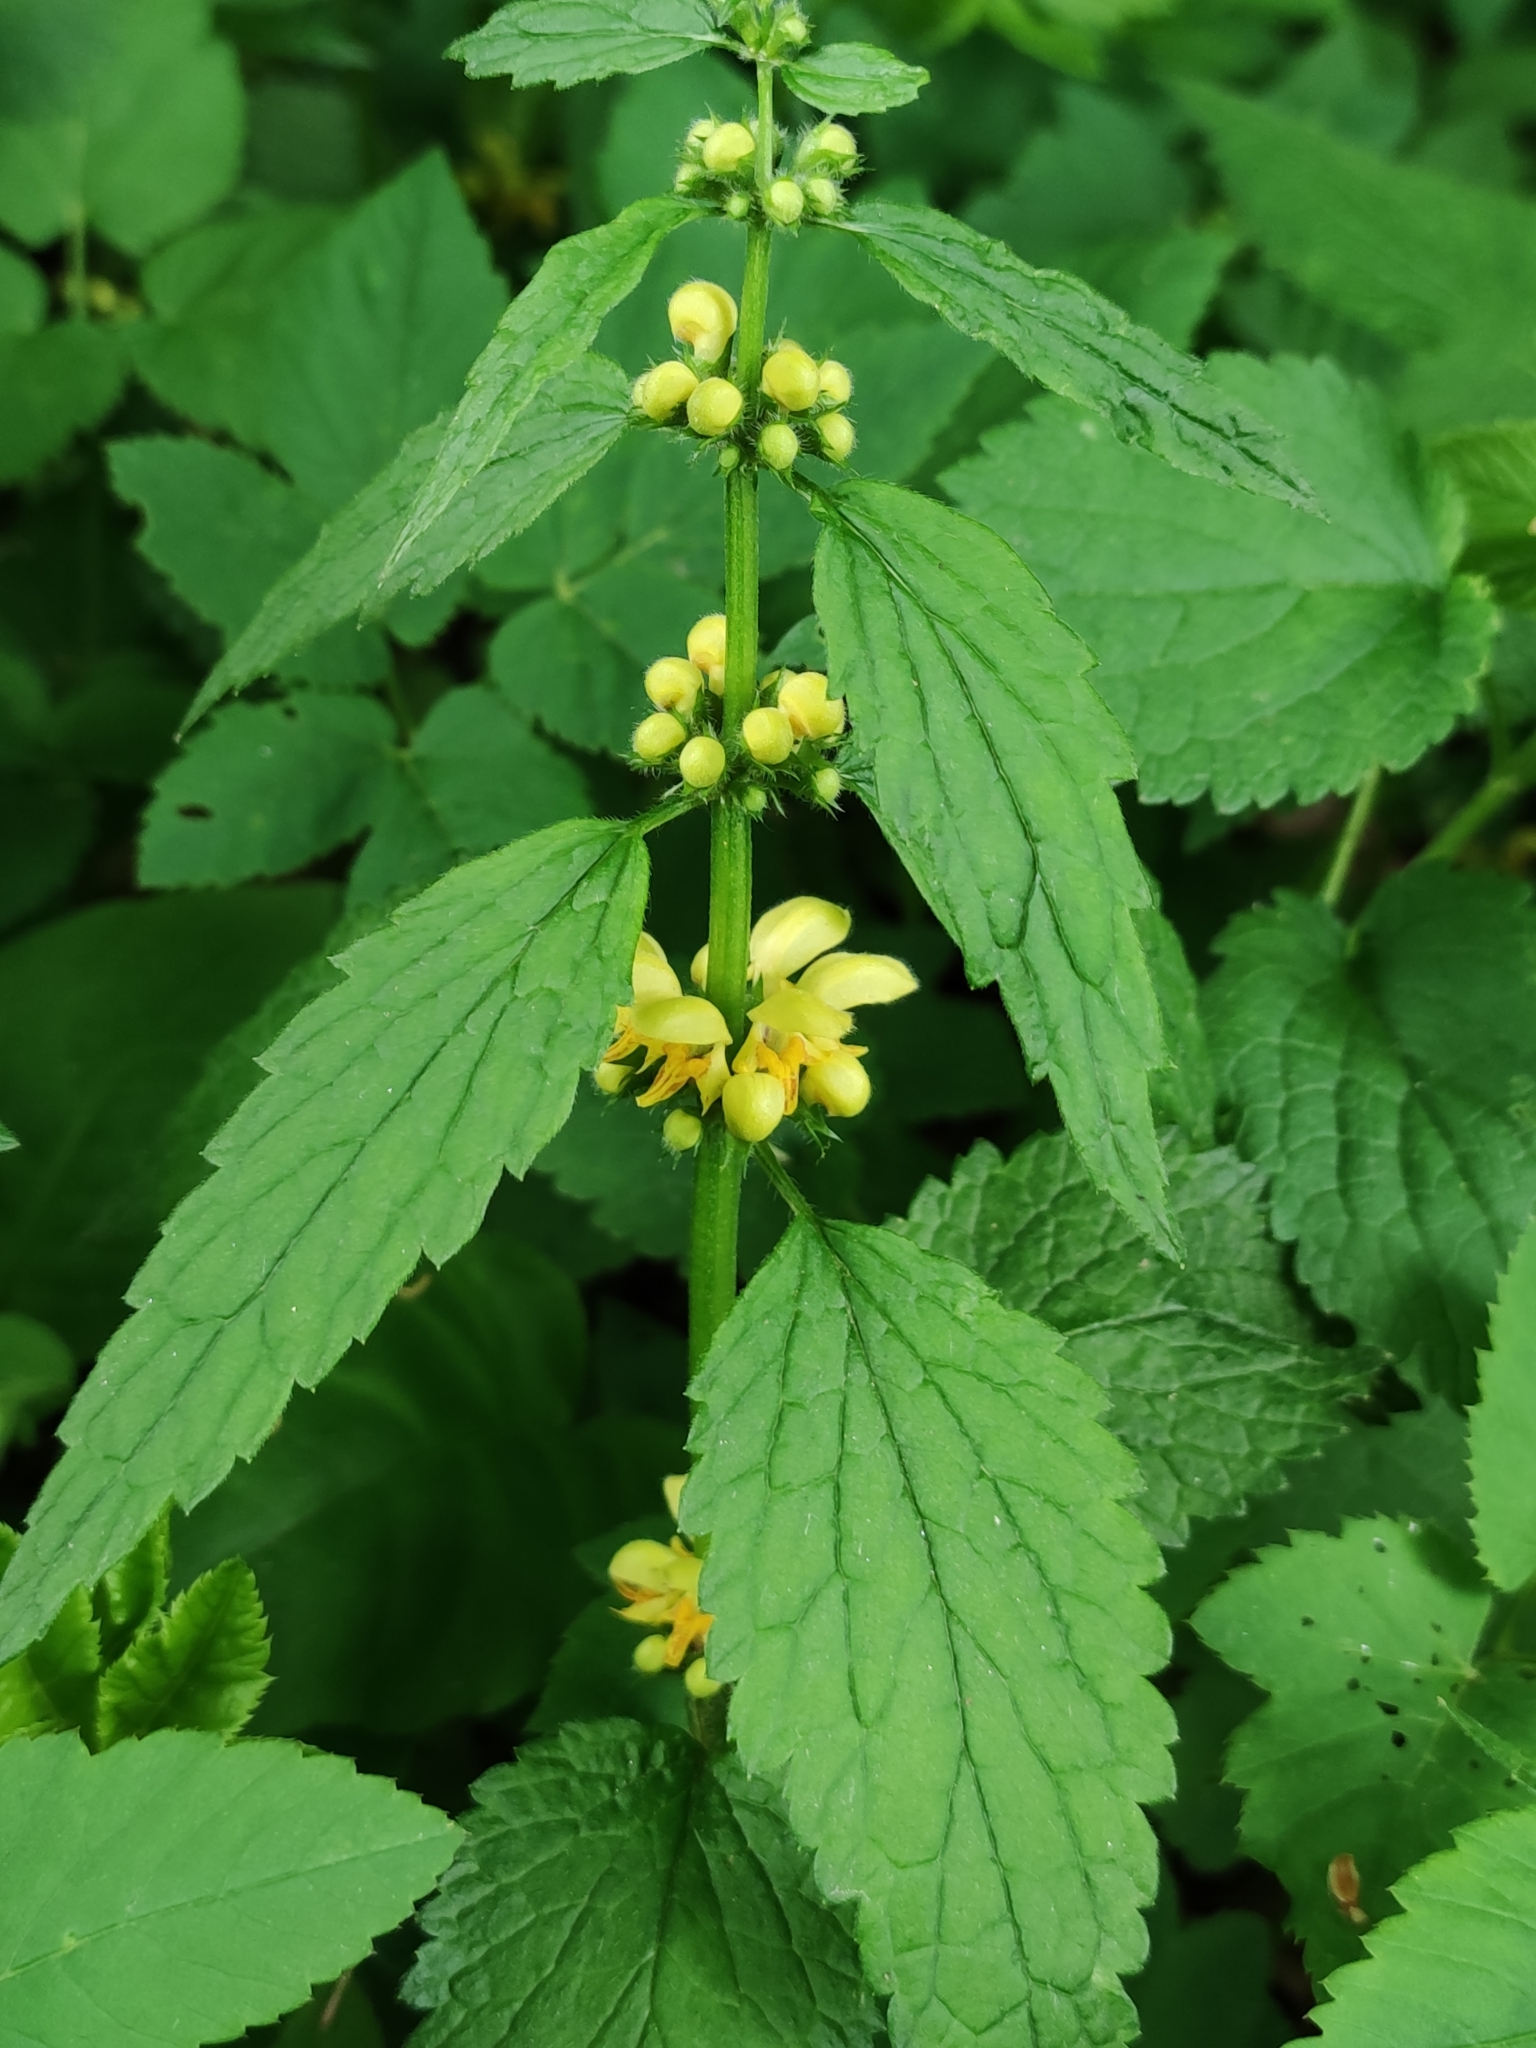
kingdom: Plantae
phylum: Tracheophyta
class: Magnoliopsida
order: Lamiales
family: Lamiaceae
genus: Lamium
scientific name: Lamium galeobdolon
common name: Yellow archangel
